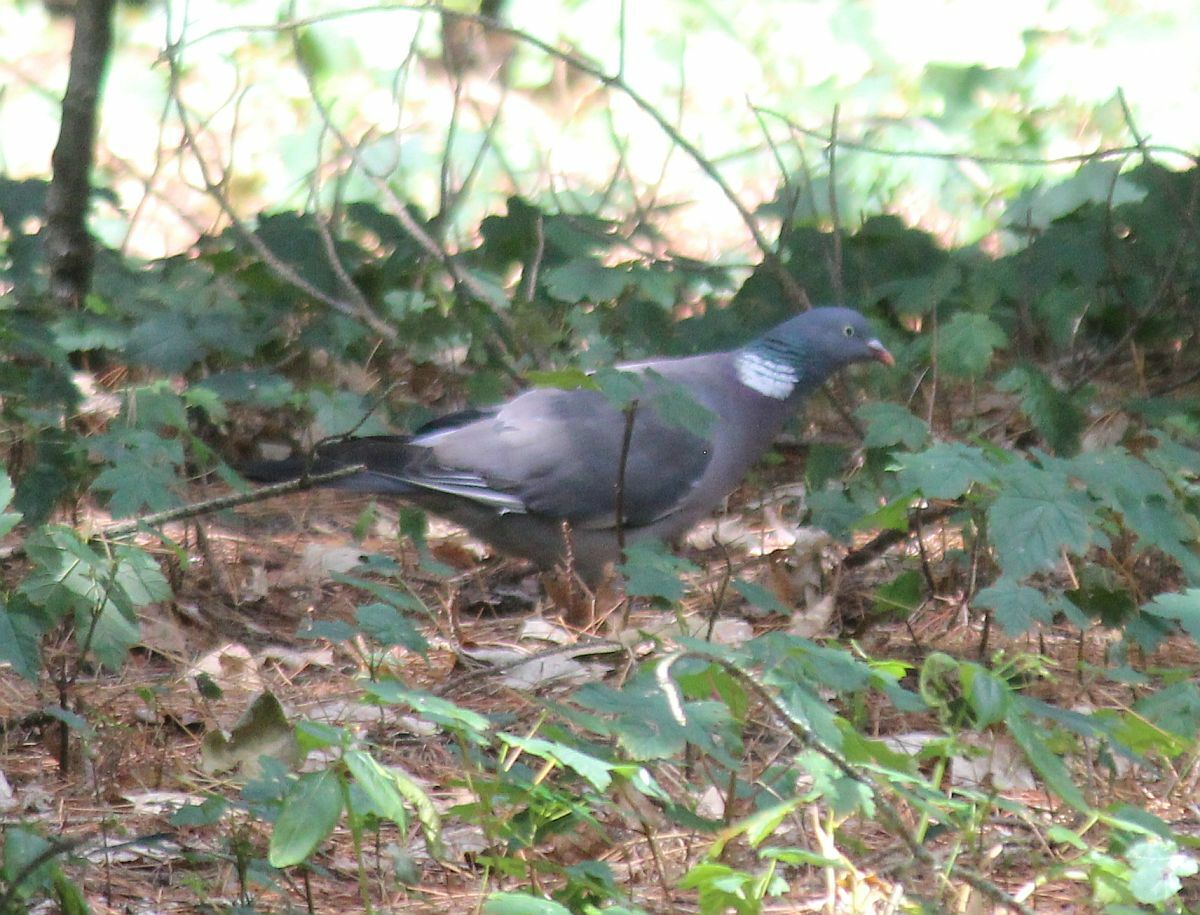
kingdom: Animalia
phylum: Chordata
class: Aves
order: Columbiformes
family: Columbidae
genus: Columba
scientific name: Columba palumbus
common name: Common wood pigeon
